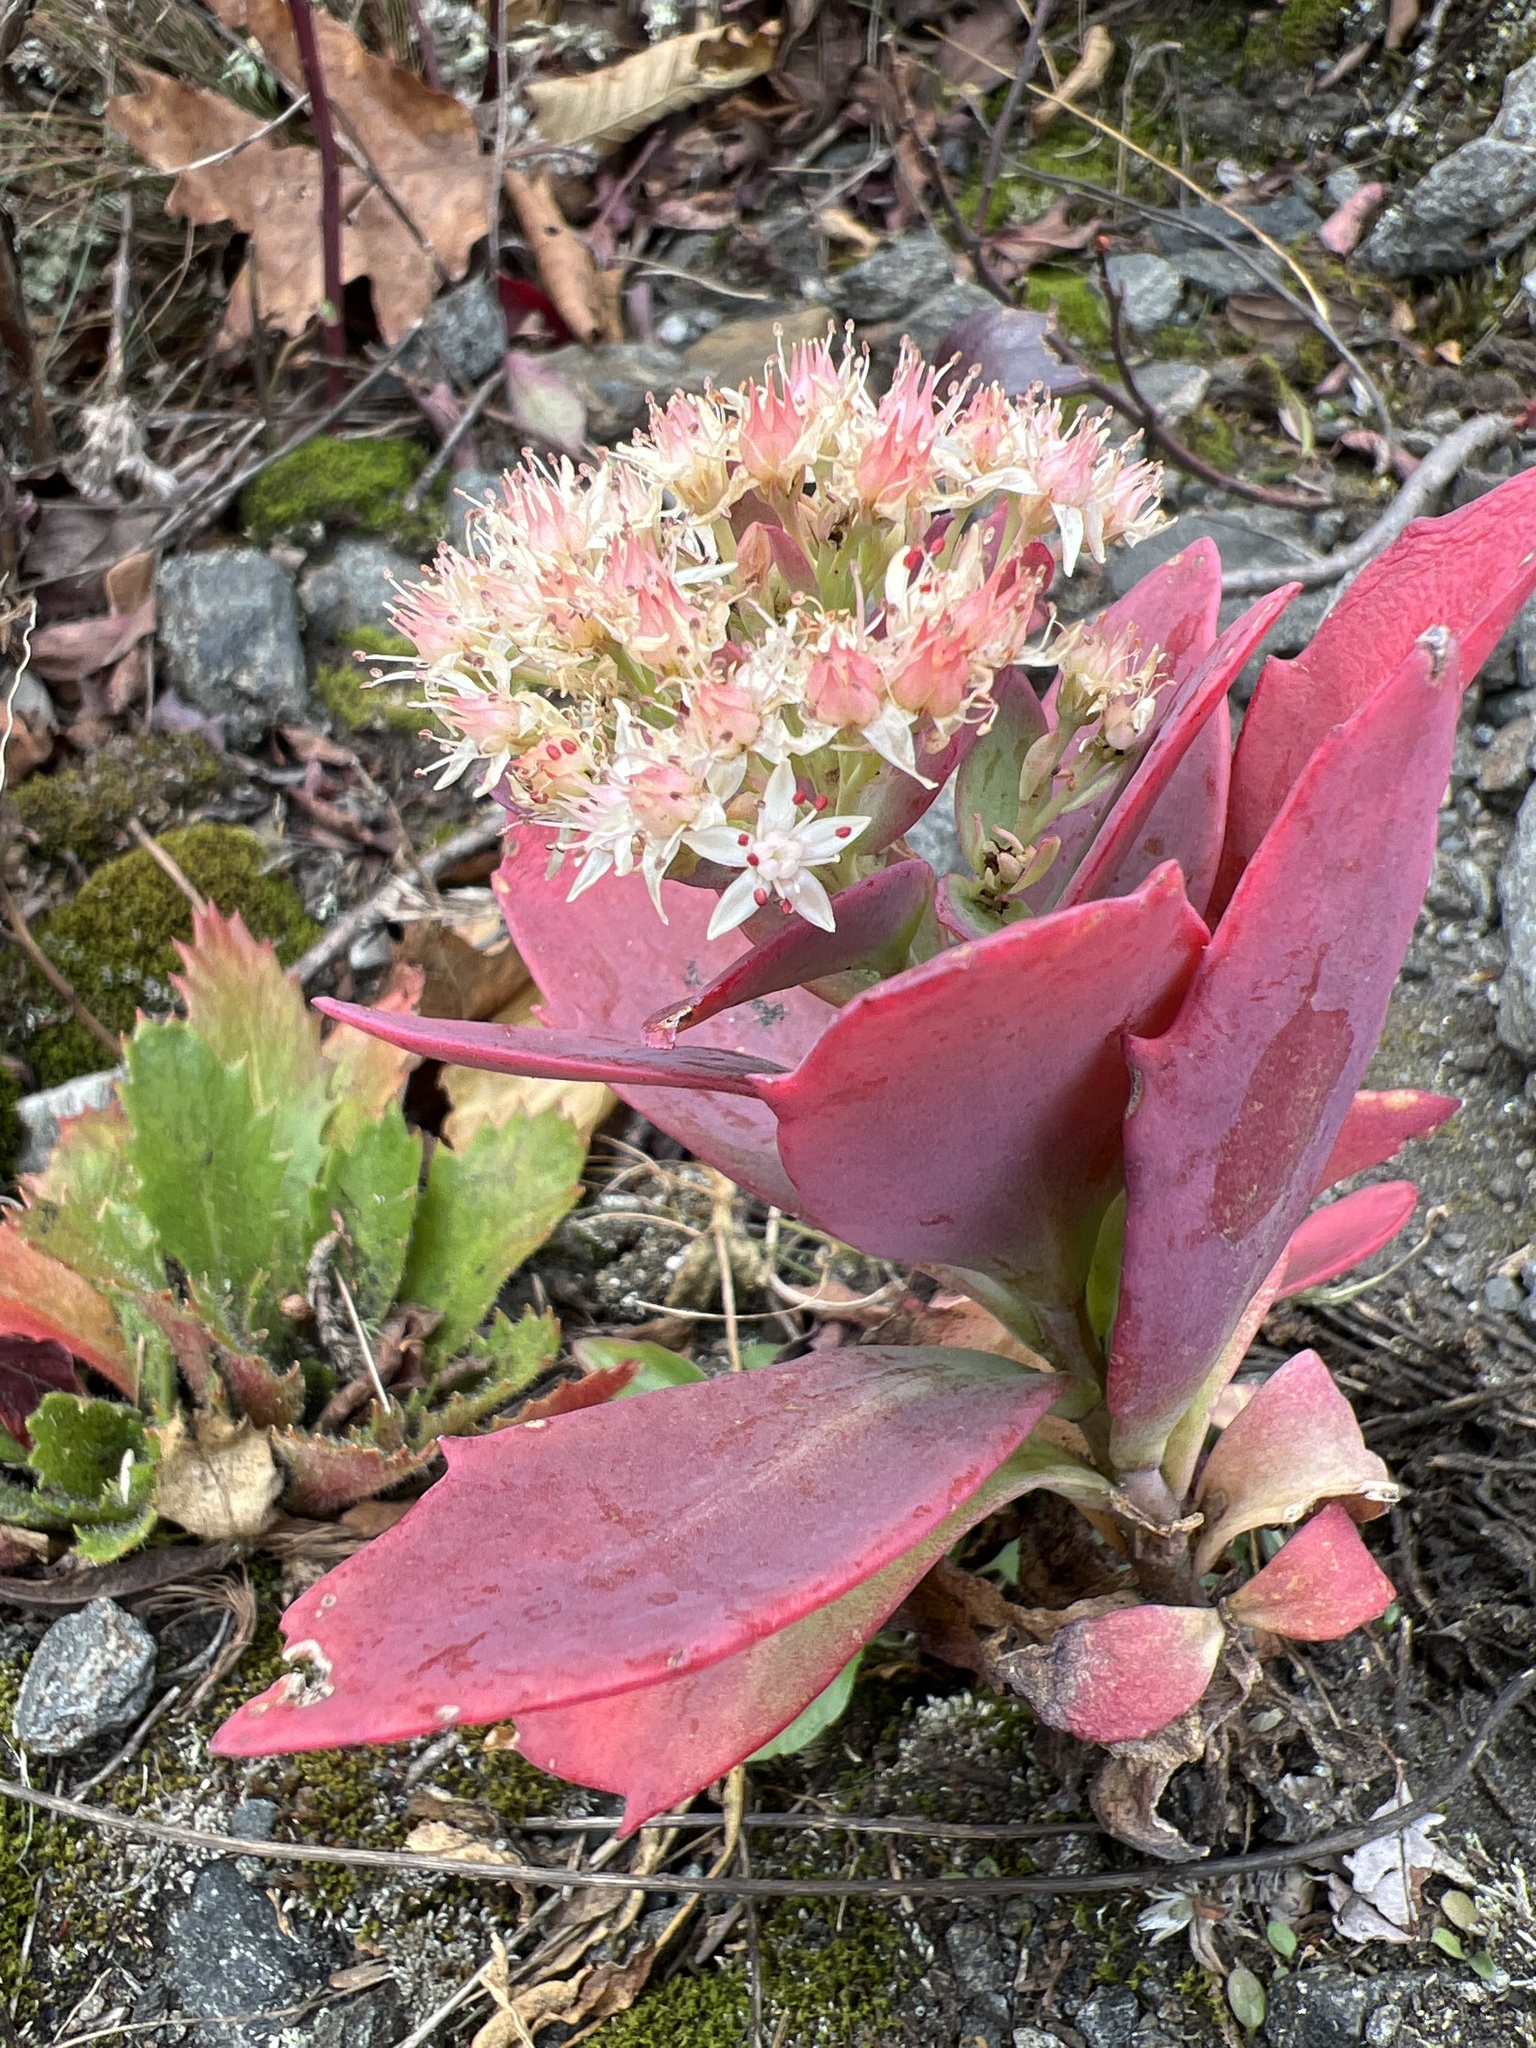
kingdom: Plantae
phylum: Tracheophyta
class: Magnoliopsida
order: Saxifragales
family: Crassulaceae
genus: Hylotelephium
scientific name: Hylotelephium telephioides
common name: Allegheny stonecrop
